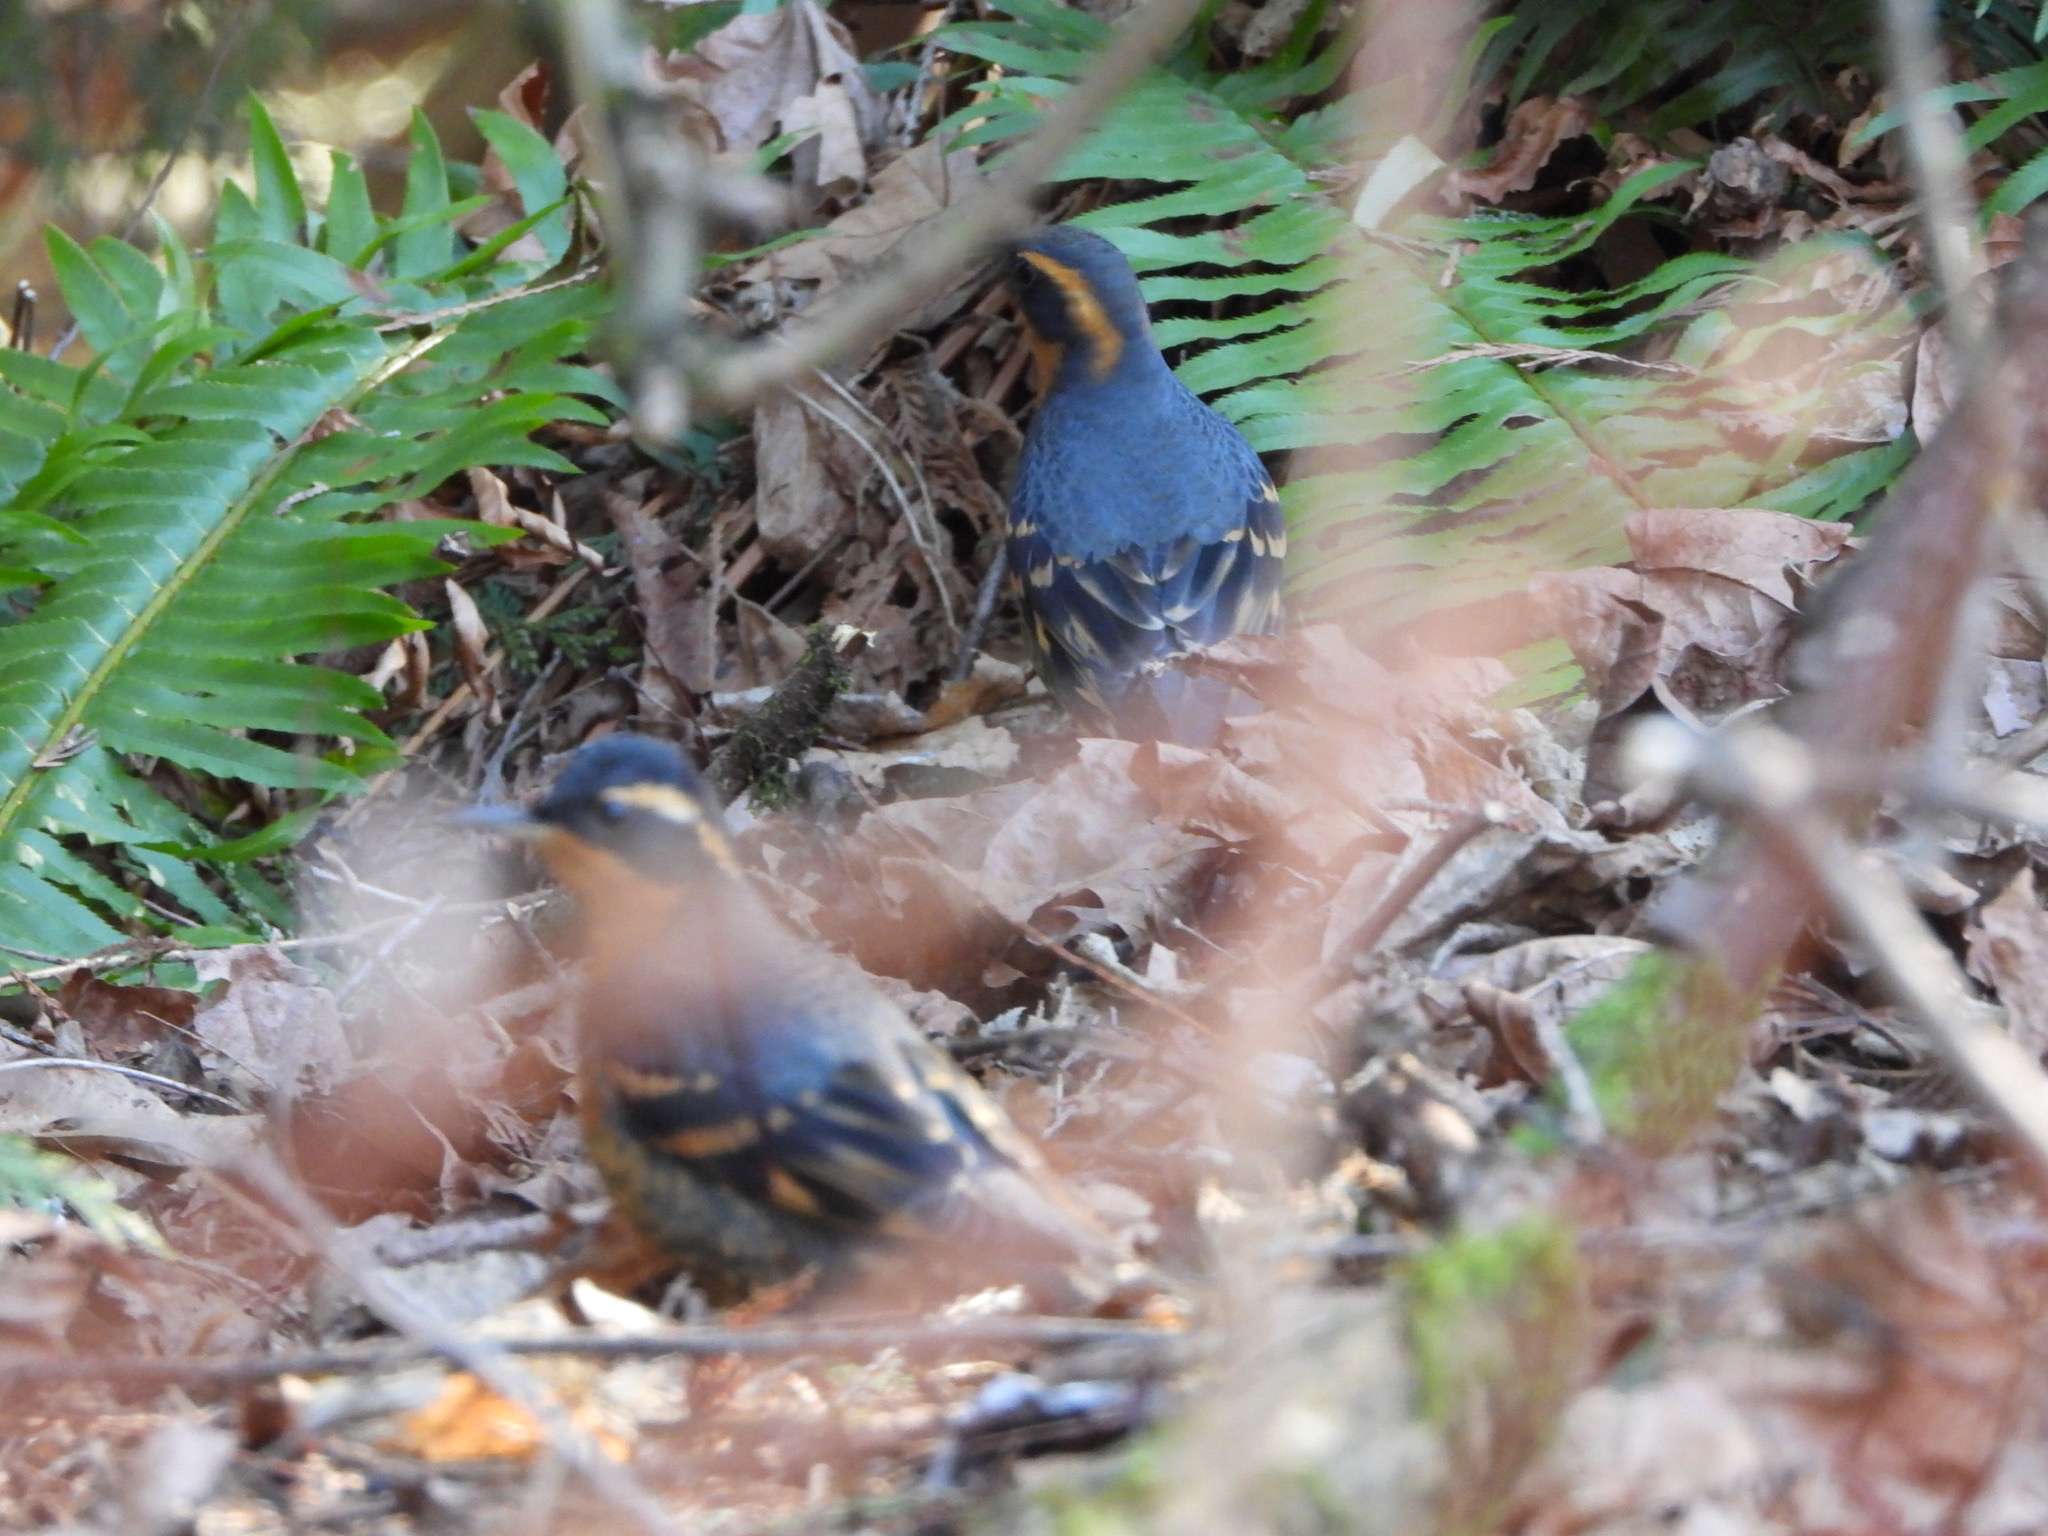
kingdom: Animalia
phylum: Chordata
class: Aves
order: Passeriformes
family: Turdidae
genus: Ixoreus
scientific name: Ixoreus naevius
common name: Varied thrush
